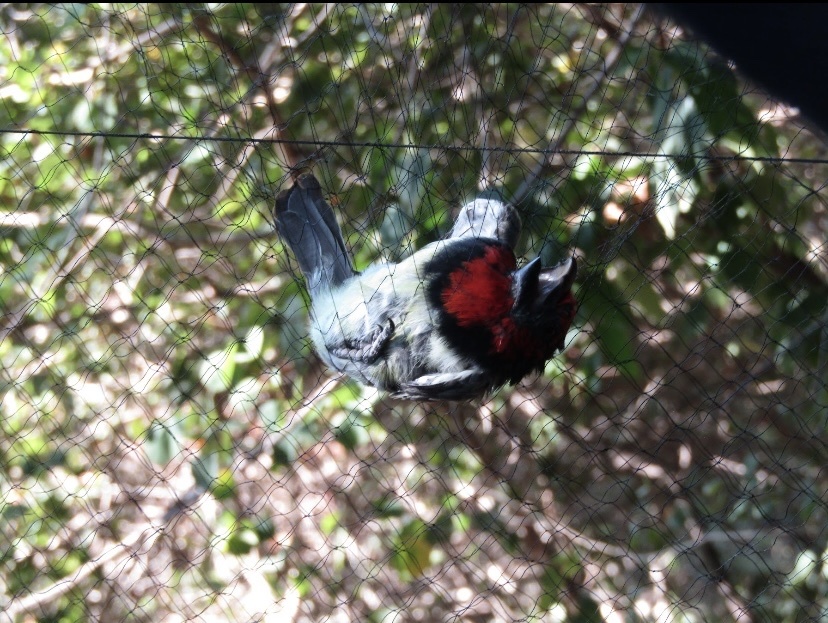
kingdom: Animalia
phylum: Chordata
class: Aves
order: Piciformes
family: Lybiidae
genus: Lybius
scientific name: Lybius torquatus
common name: Black-collared barbet
